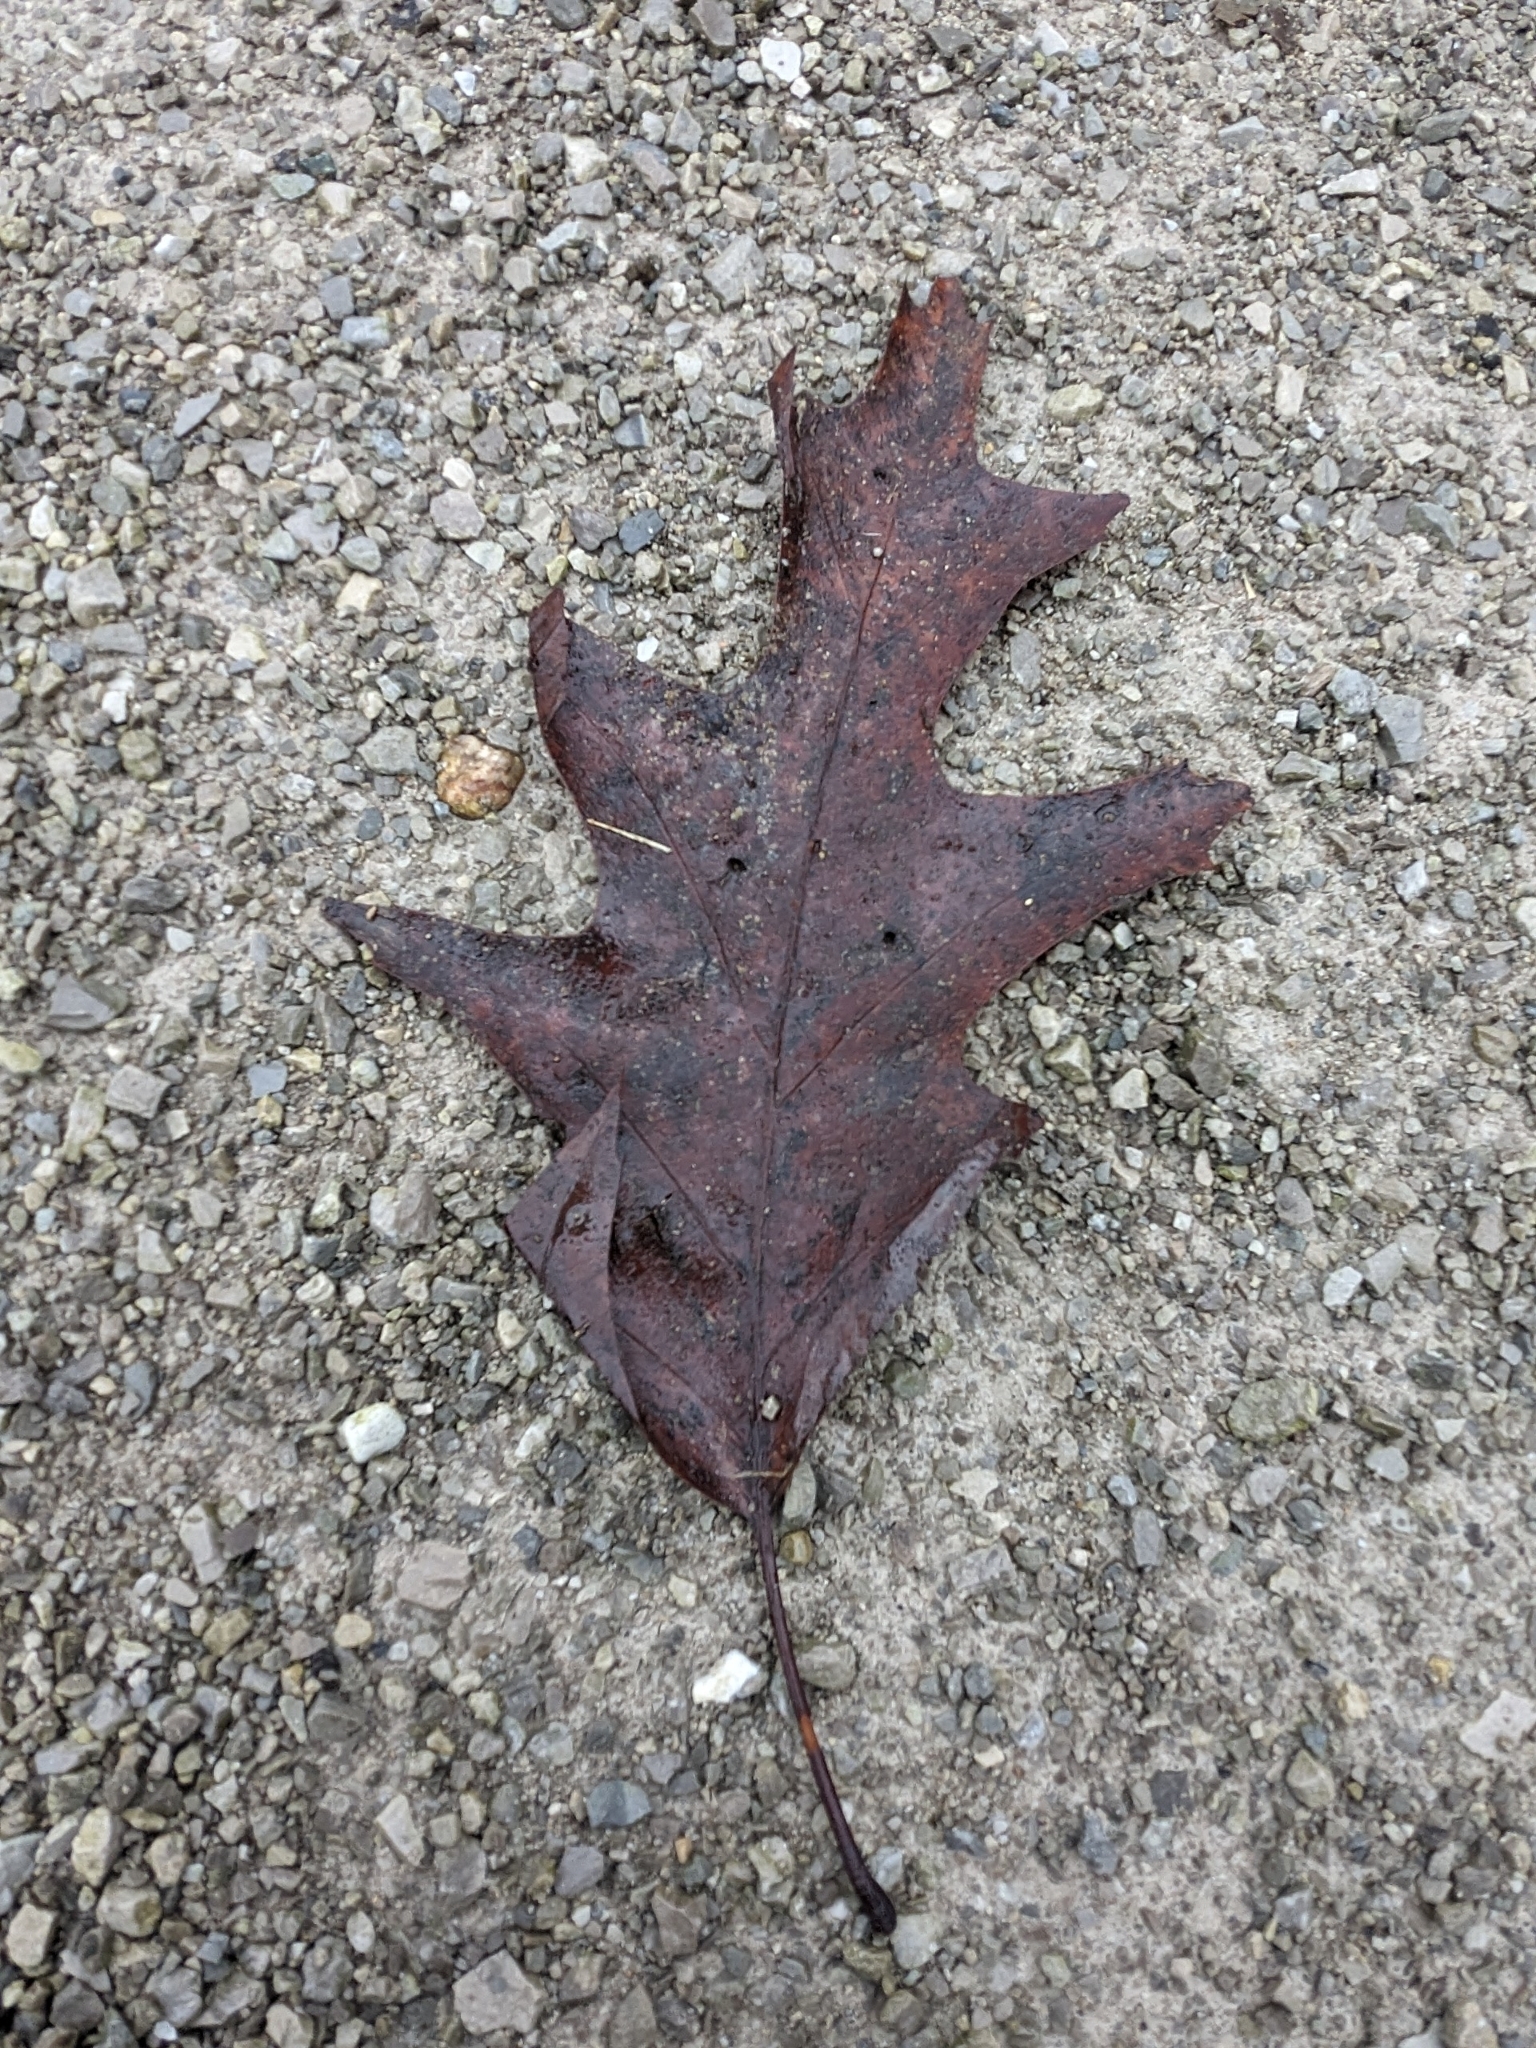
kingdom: Plantae
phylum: Tracheophyta
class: Magnoliopsida
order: Fagales
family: Fagaceae
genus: Quercus
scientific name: Quercus rubra
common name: Red oak
